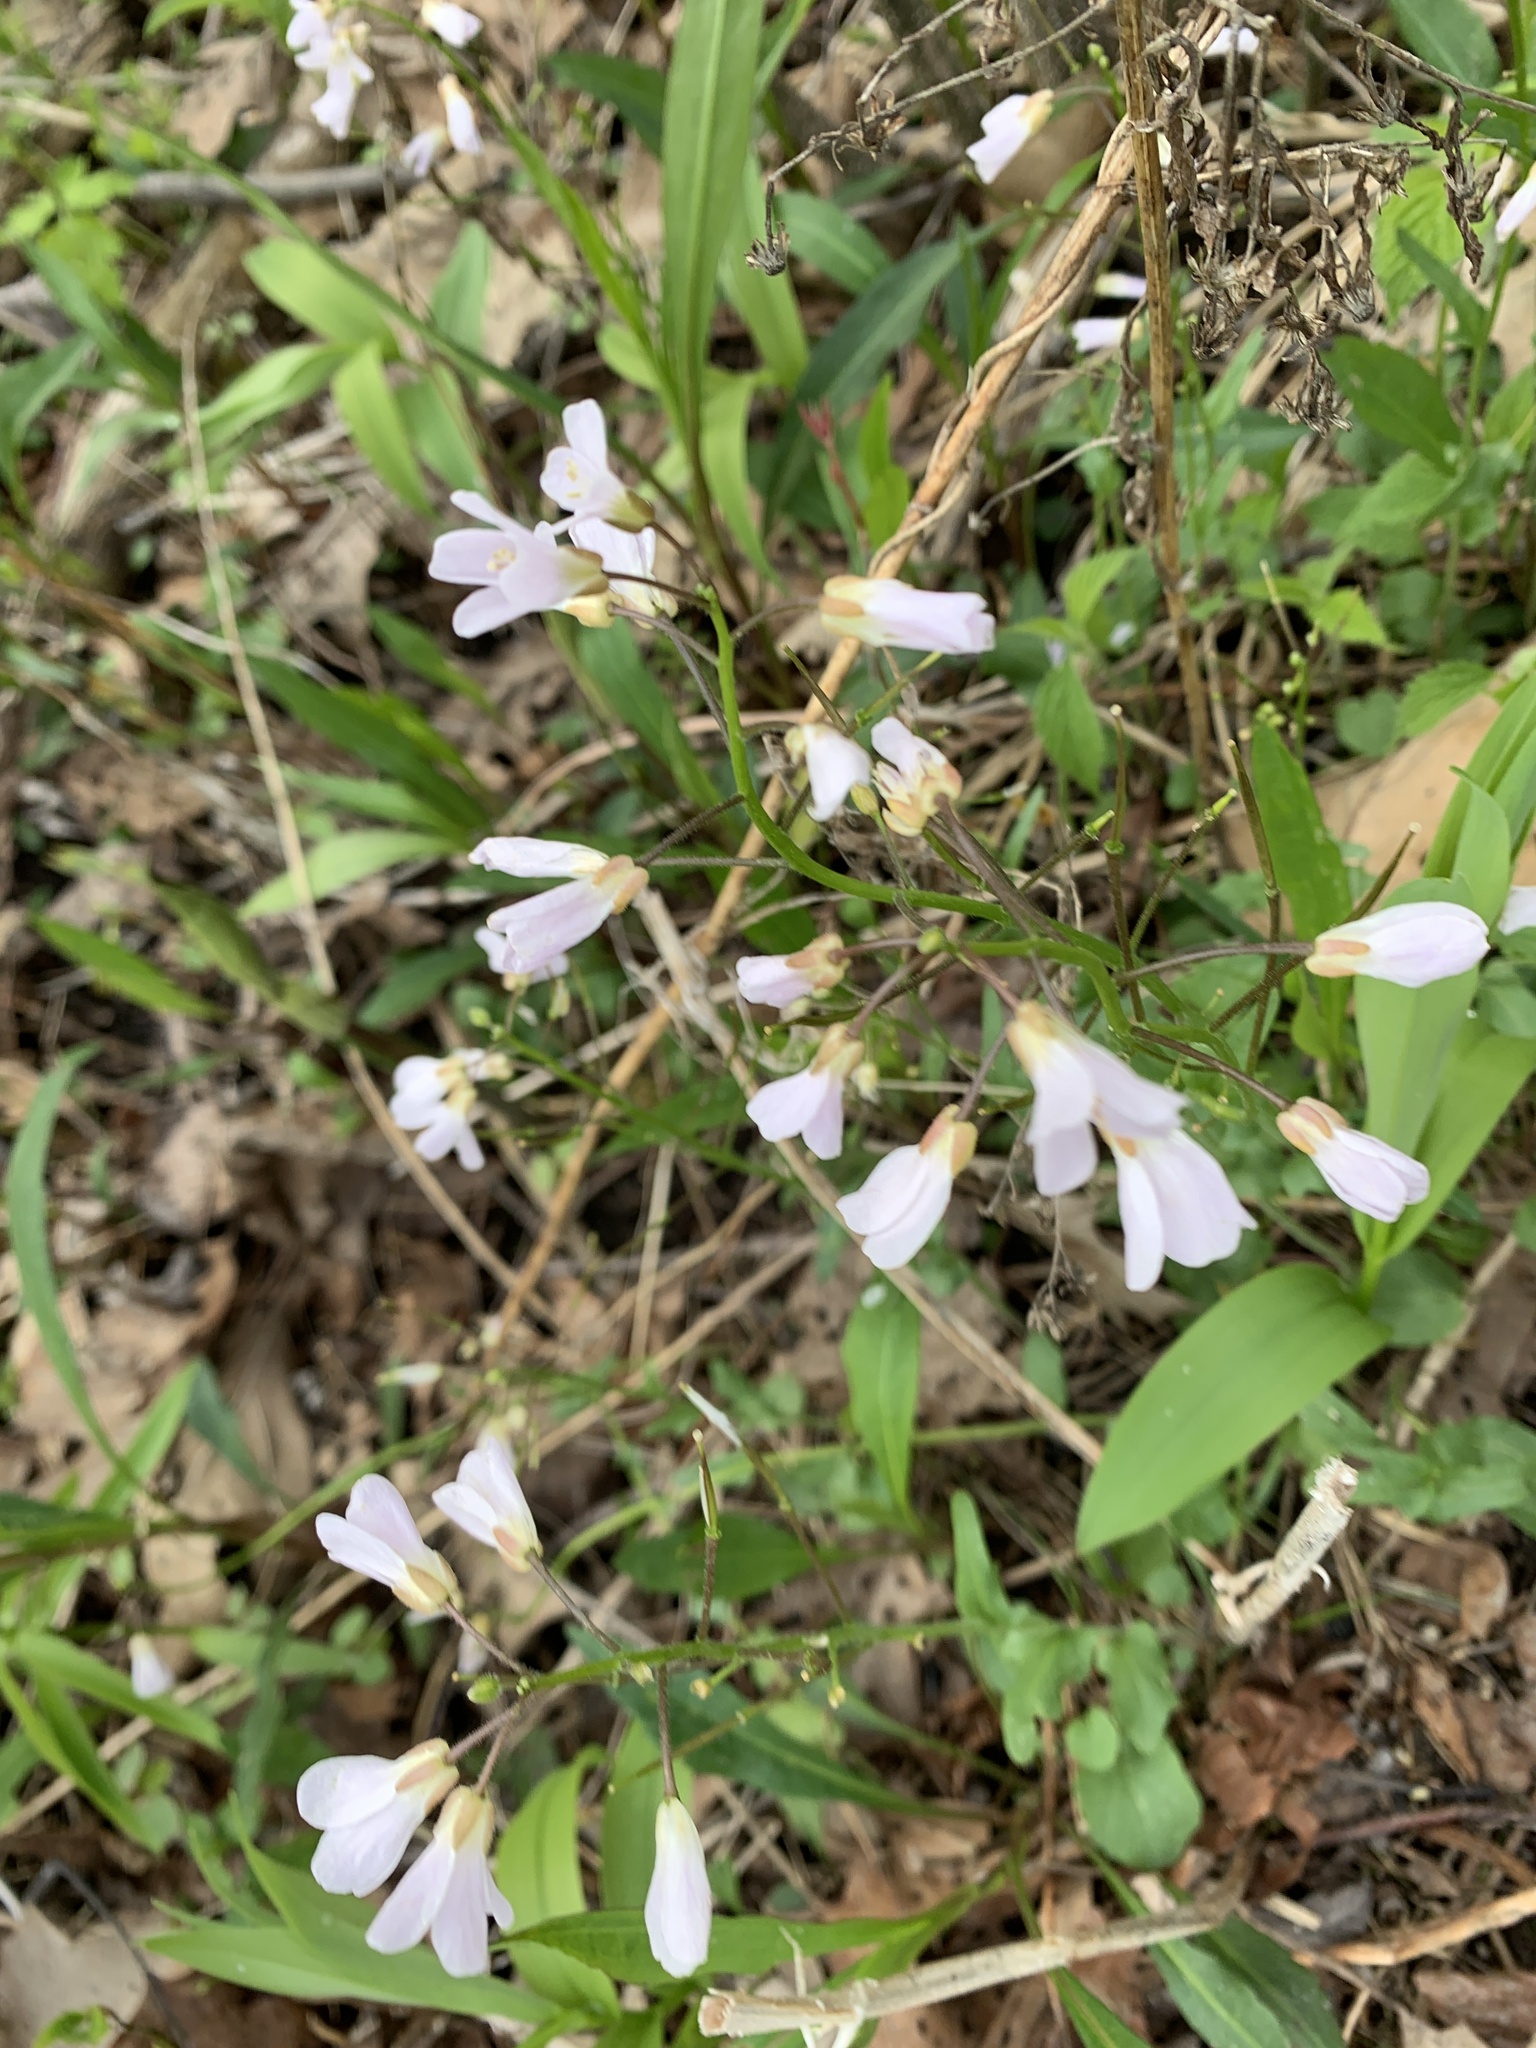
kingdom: Plantae
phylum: Tracheophyta
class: Magnoliopsida
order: Brassicales
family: Brassicaceae
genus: Cardamine
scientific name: Cardamine douglassii
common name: Purple cress
